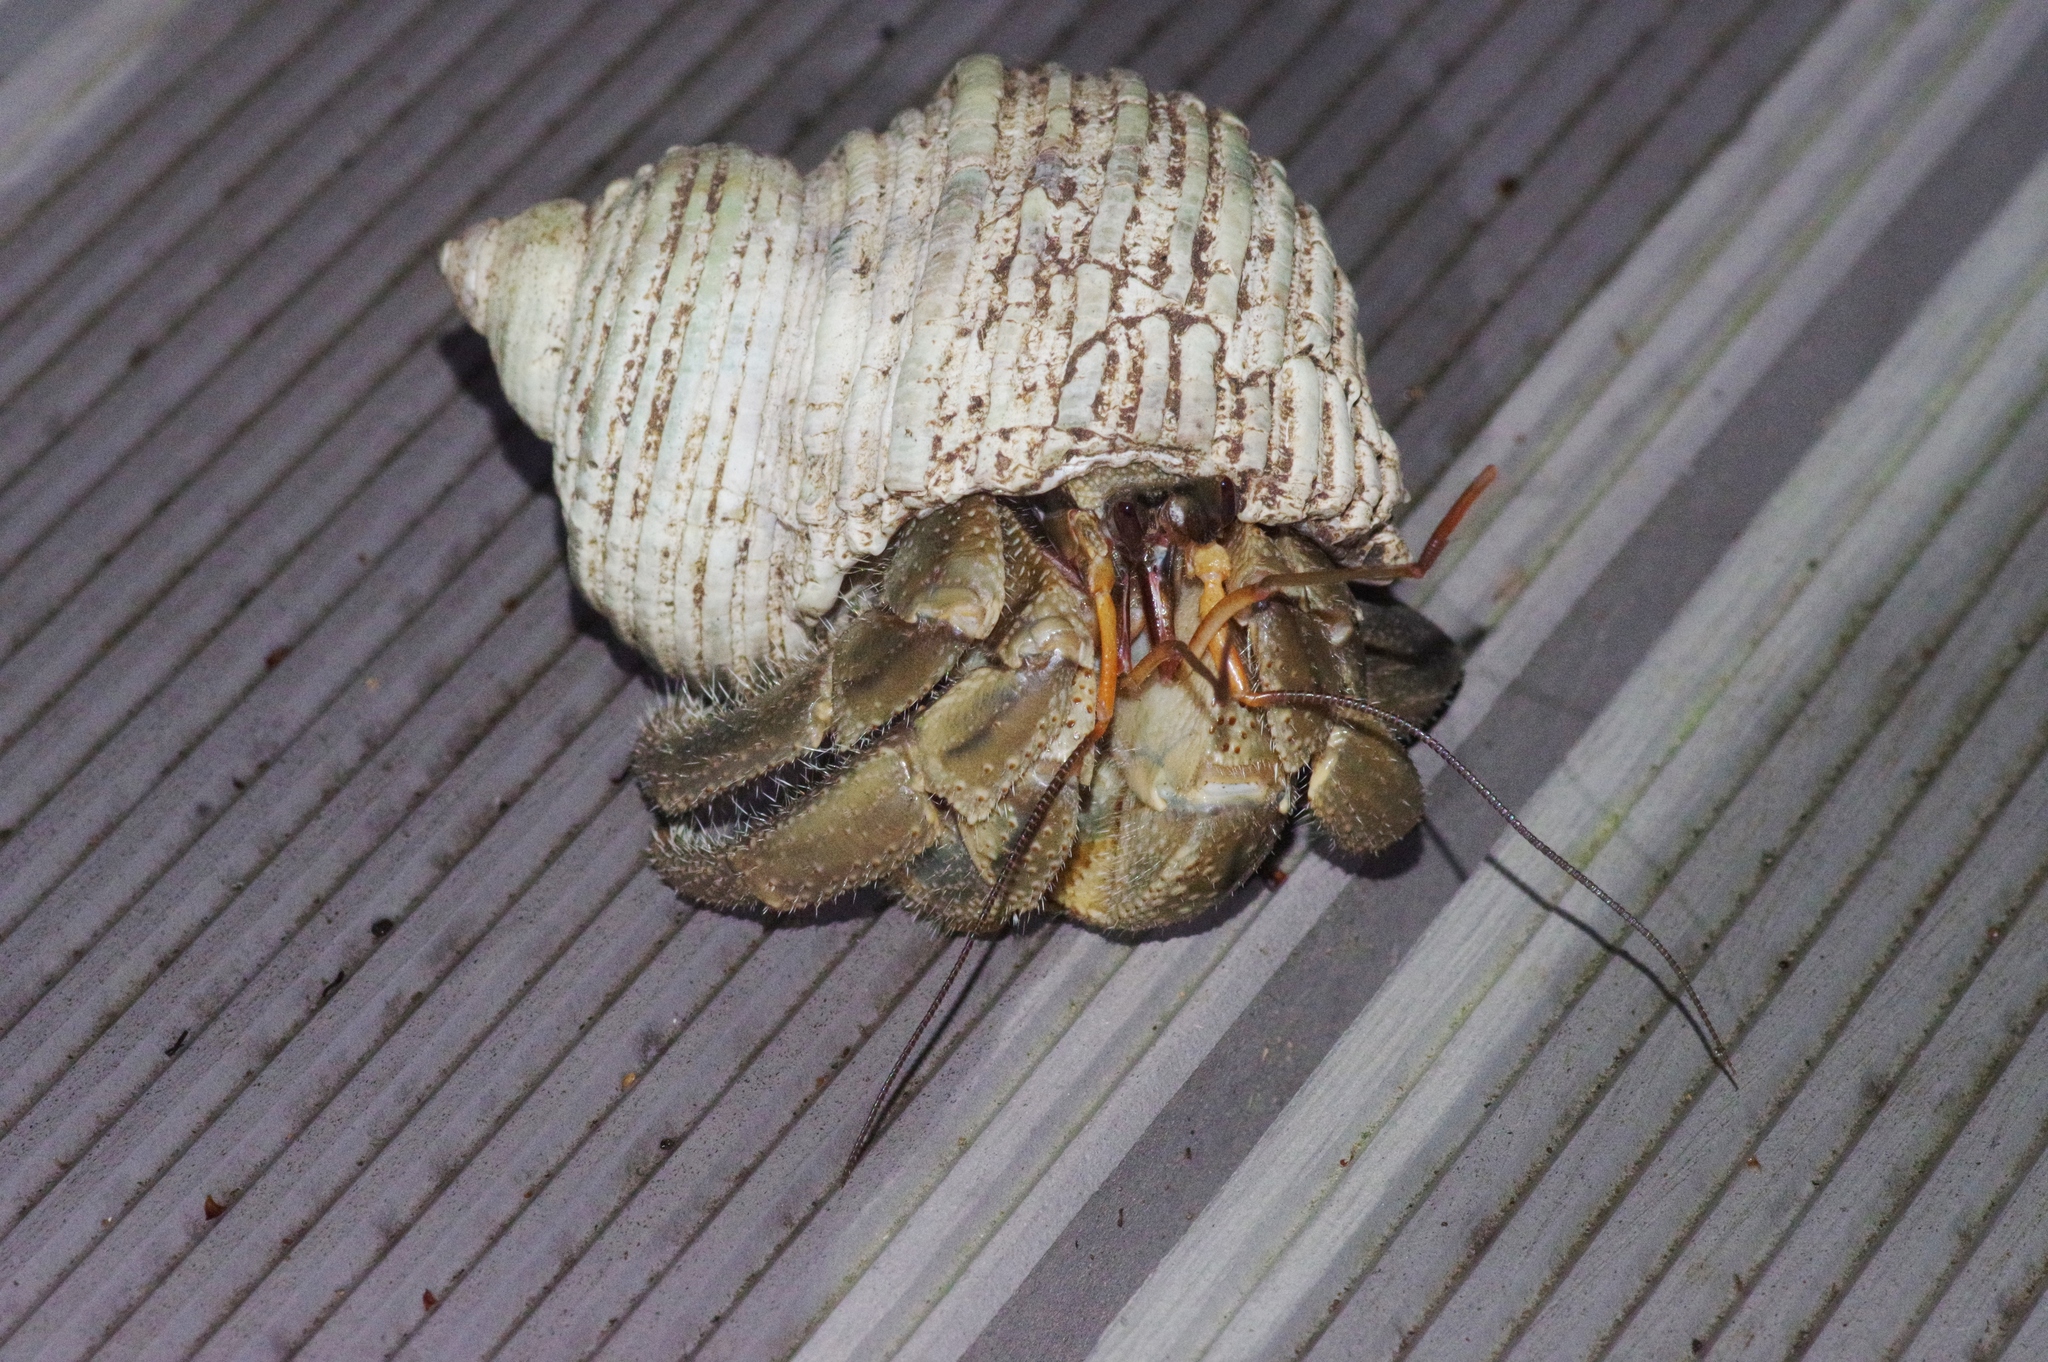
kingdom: Animalia
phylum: Arthropoda
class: Malacostraca
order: Decapoda
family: Coenobitidae
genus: Coenobita
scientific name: Coenobita cavipes
